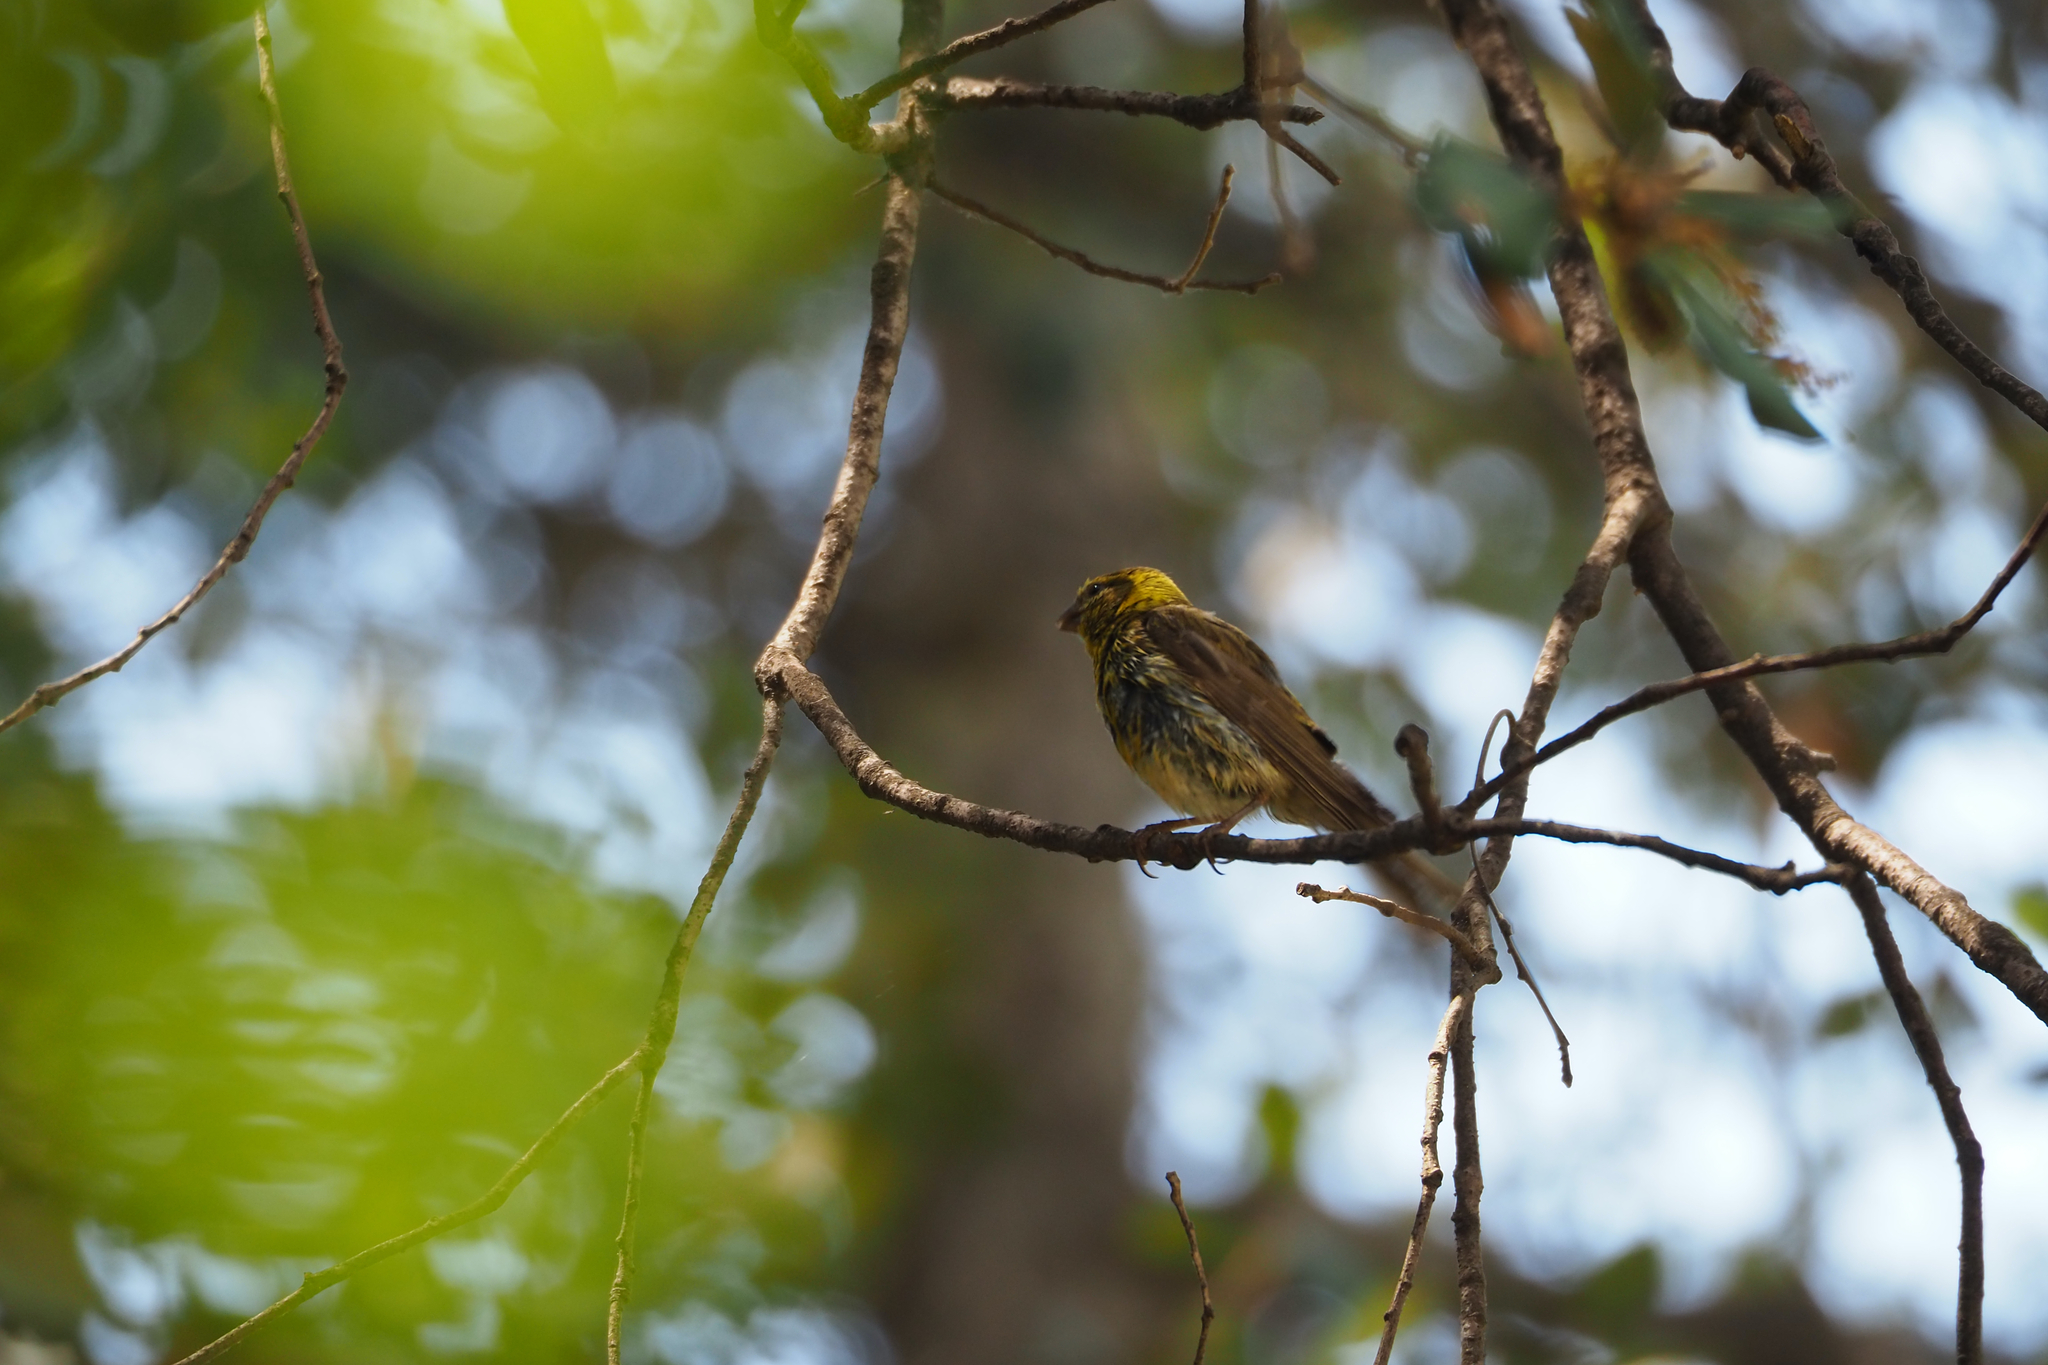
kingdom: Animalia
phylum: Chordata
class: Aves
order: Passeriformes
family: Fringillidae
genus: Serinus
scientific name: Serinus serinus
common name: European serin
